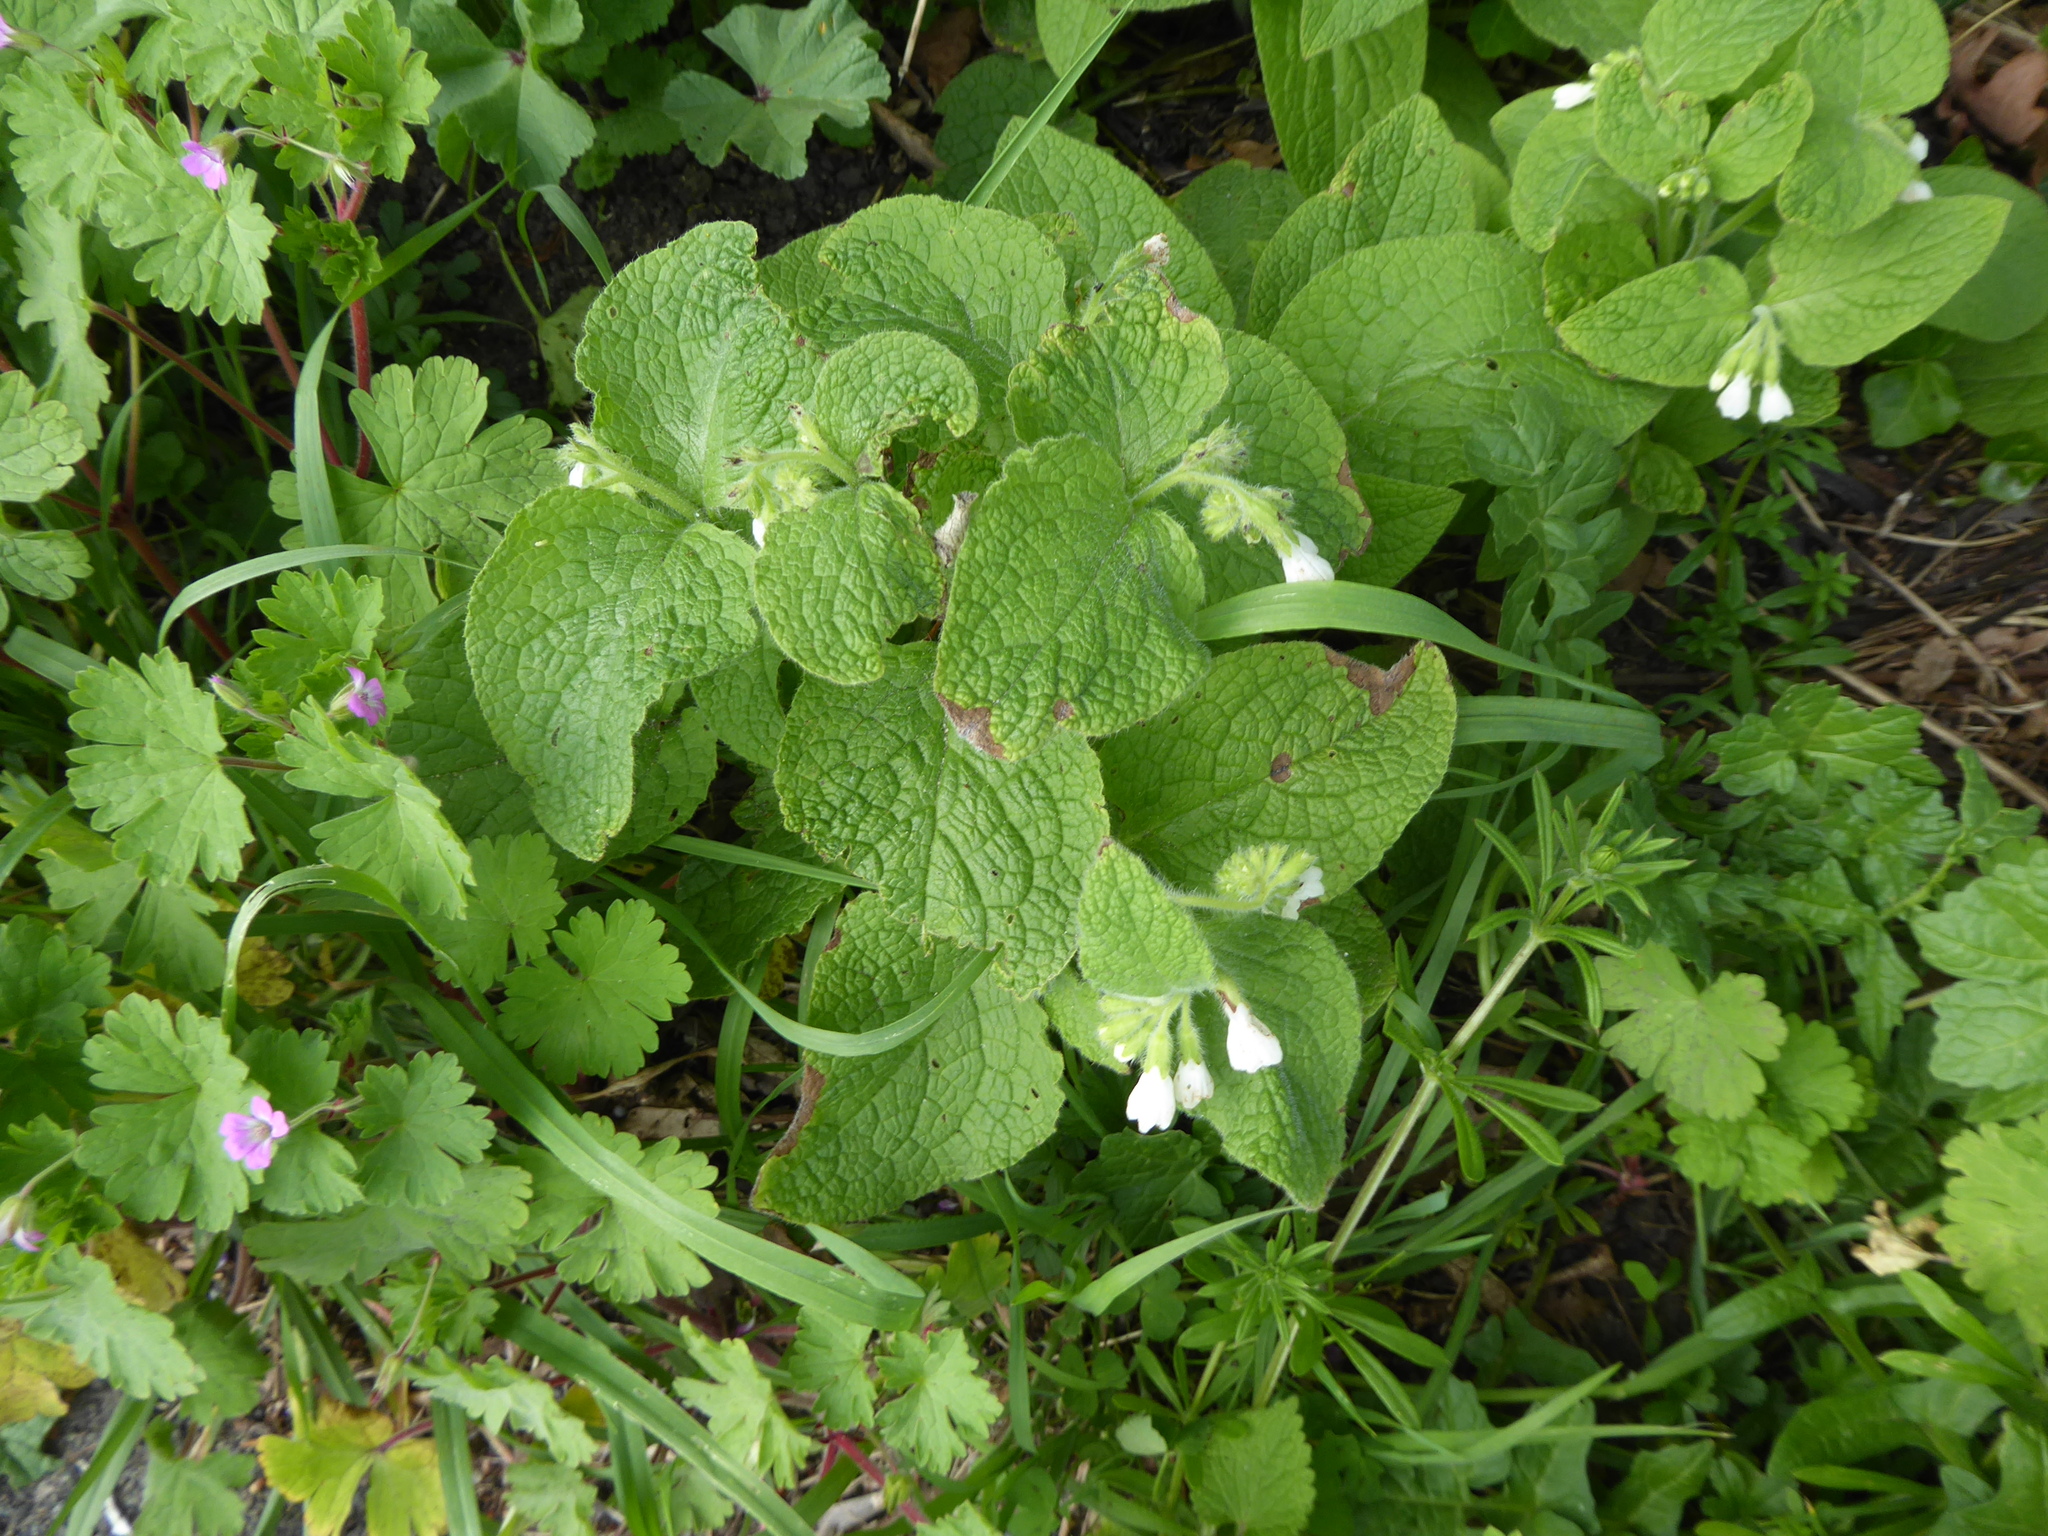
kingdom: Plantae
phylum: Tracheophyta
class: Magnoliopsida
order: Boraginales
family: Boraginaceae
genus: Symphytum
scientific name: Symphytum orientale
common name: White comfrey
